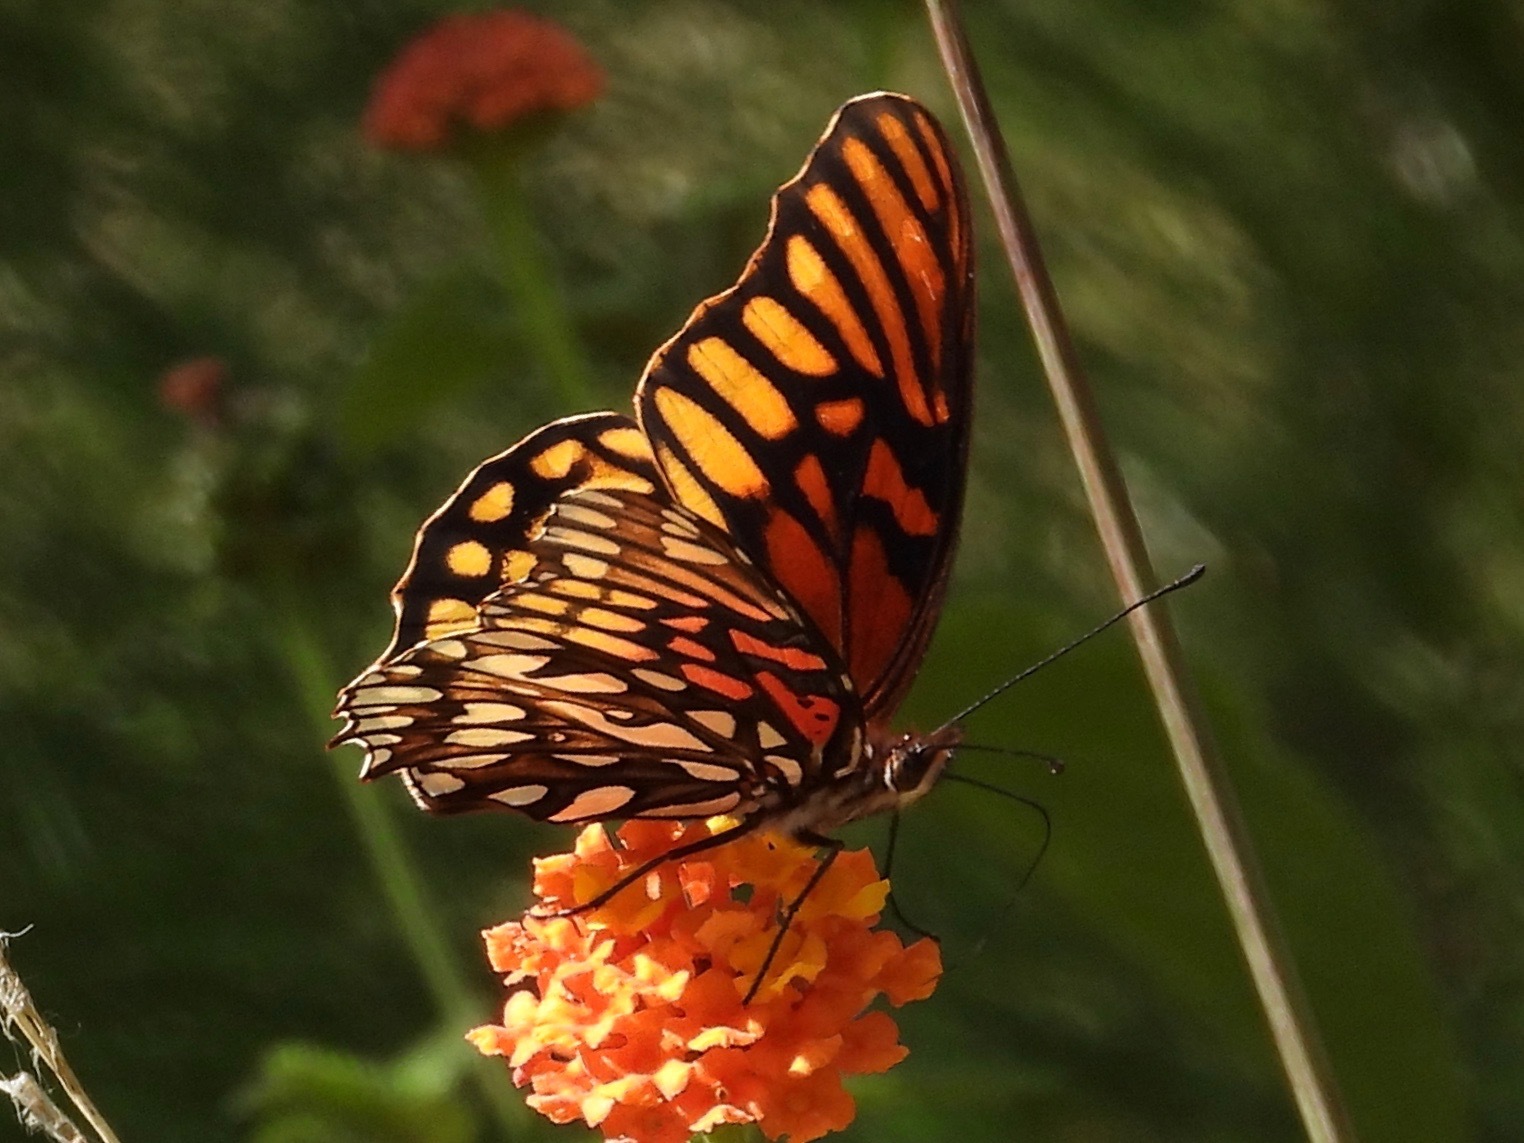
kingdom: Animalia
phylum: Arthropoda
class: Insecta
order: Lepidoptera
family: Nymphalidae
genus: Dione
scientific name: Dione moneta
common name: Mexican silverspot
